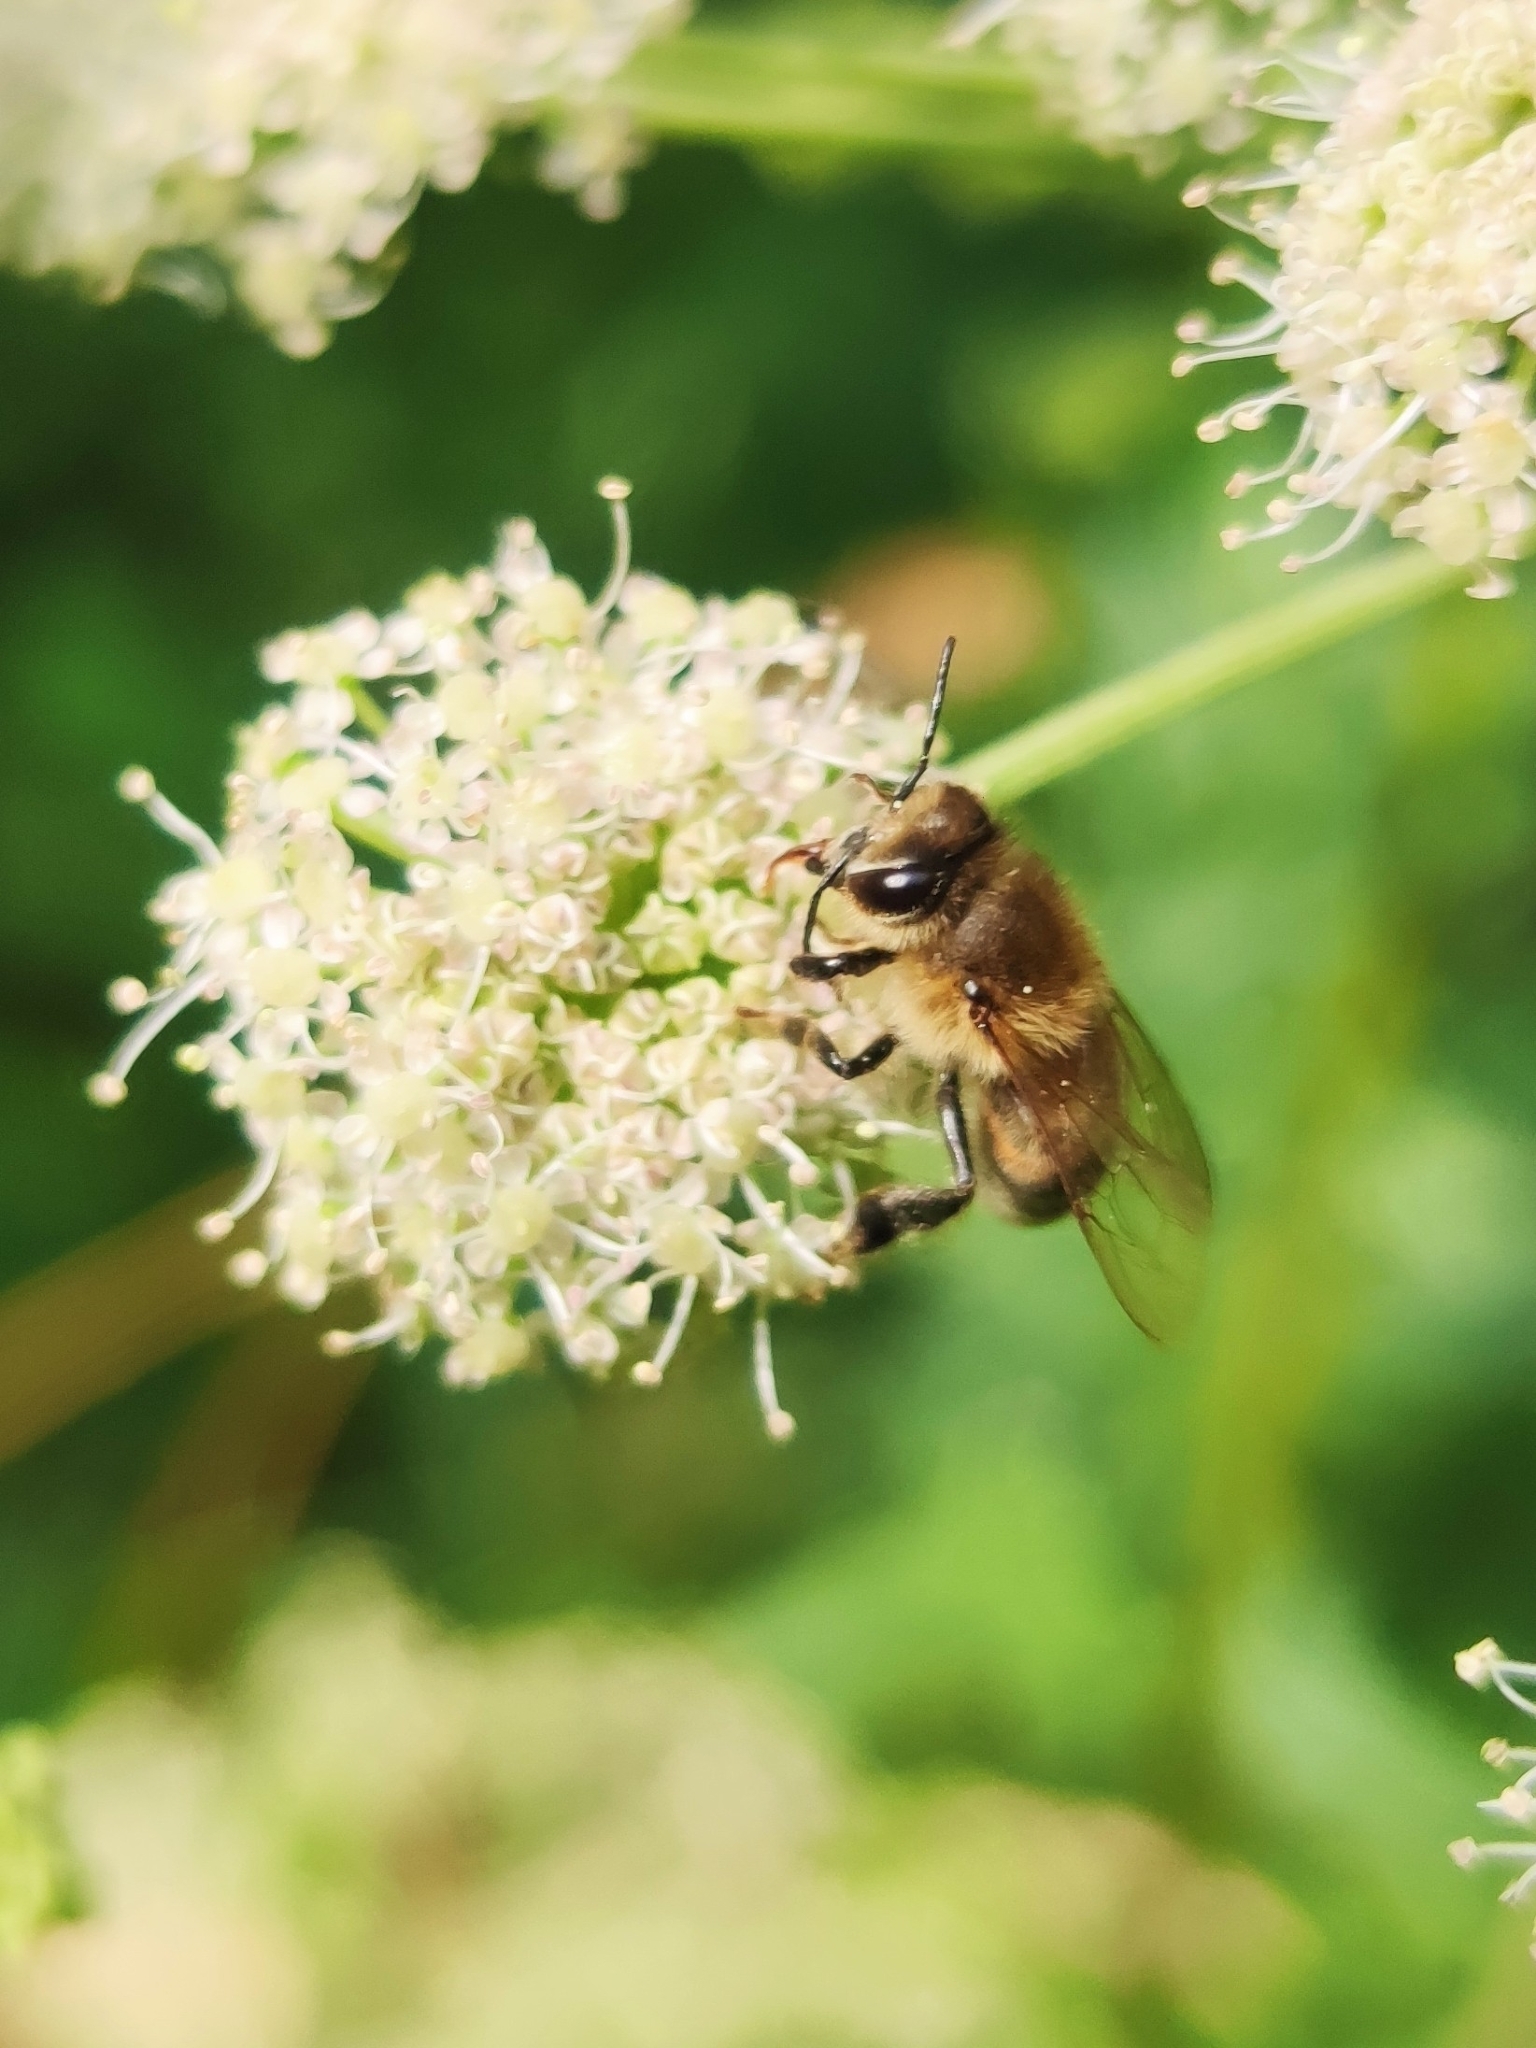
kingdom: Animalia
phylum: Arthropoda
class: Insecta
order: Hymenoptera
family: Apidae
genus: Apis
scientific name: Apis mellifera
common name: Honey bee
